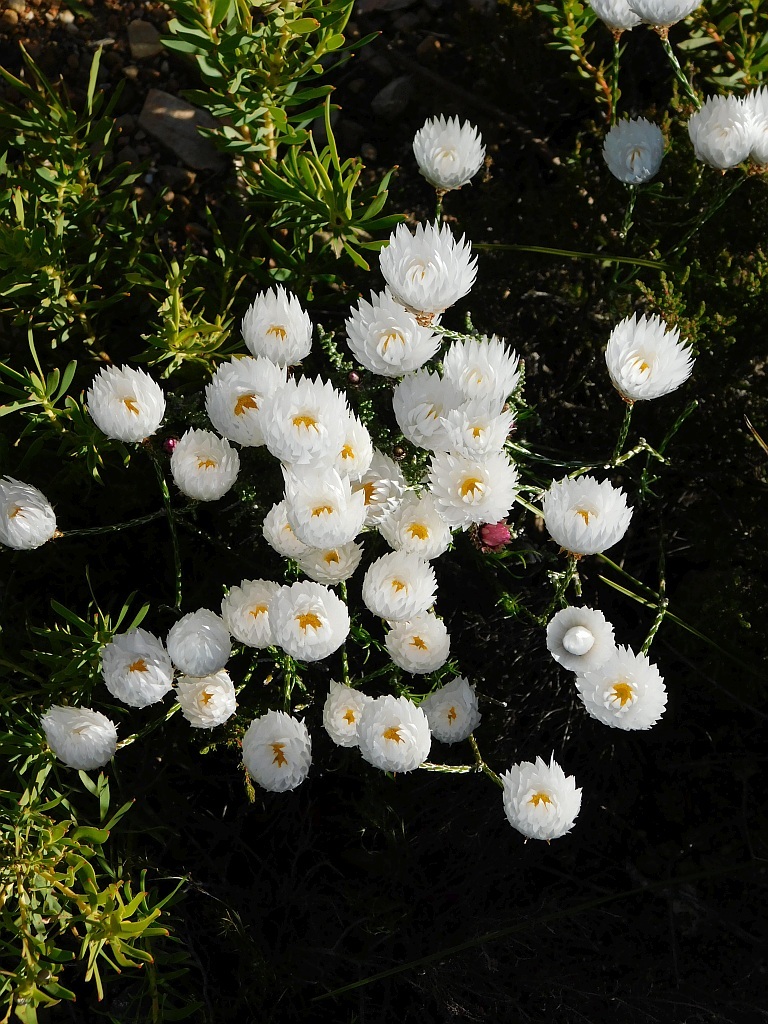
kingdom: Plantae
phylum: Tracheophyta
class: Magnoliopsida
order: Asterales
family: Asteraceae
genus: Edmondia
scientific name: Edmondia sesamoides
